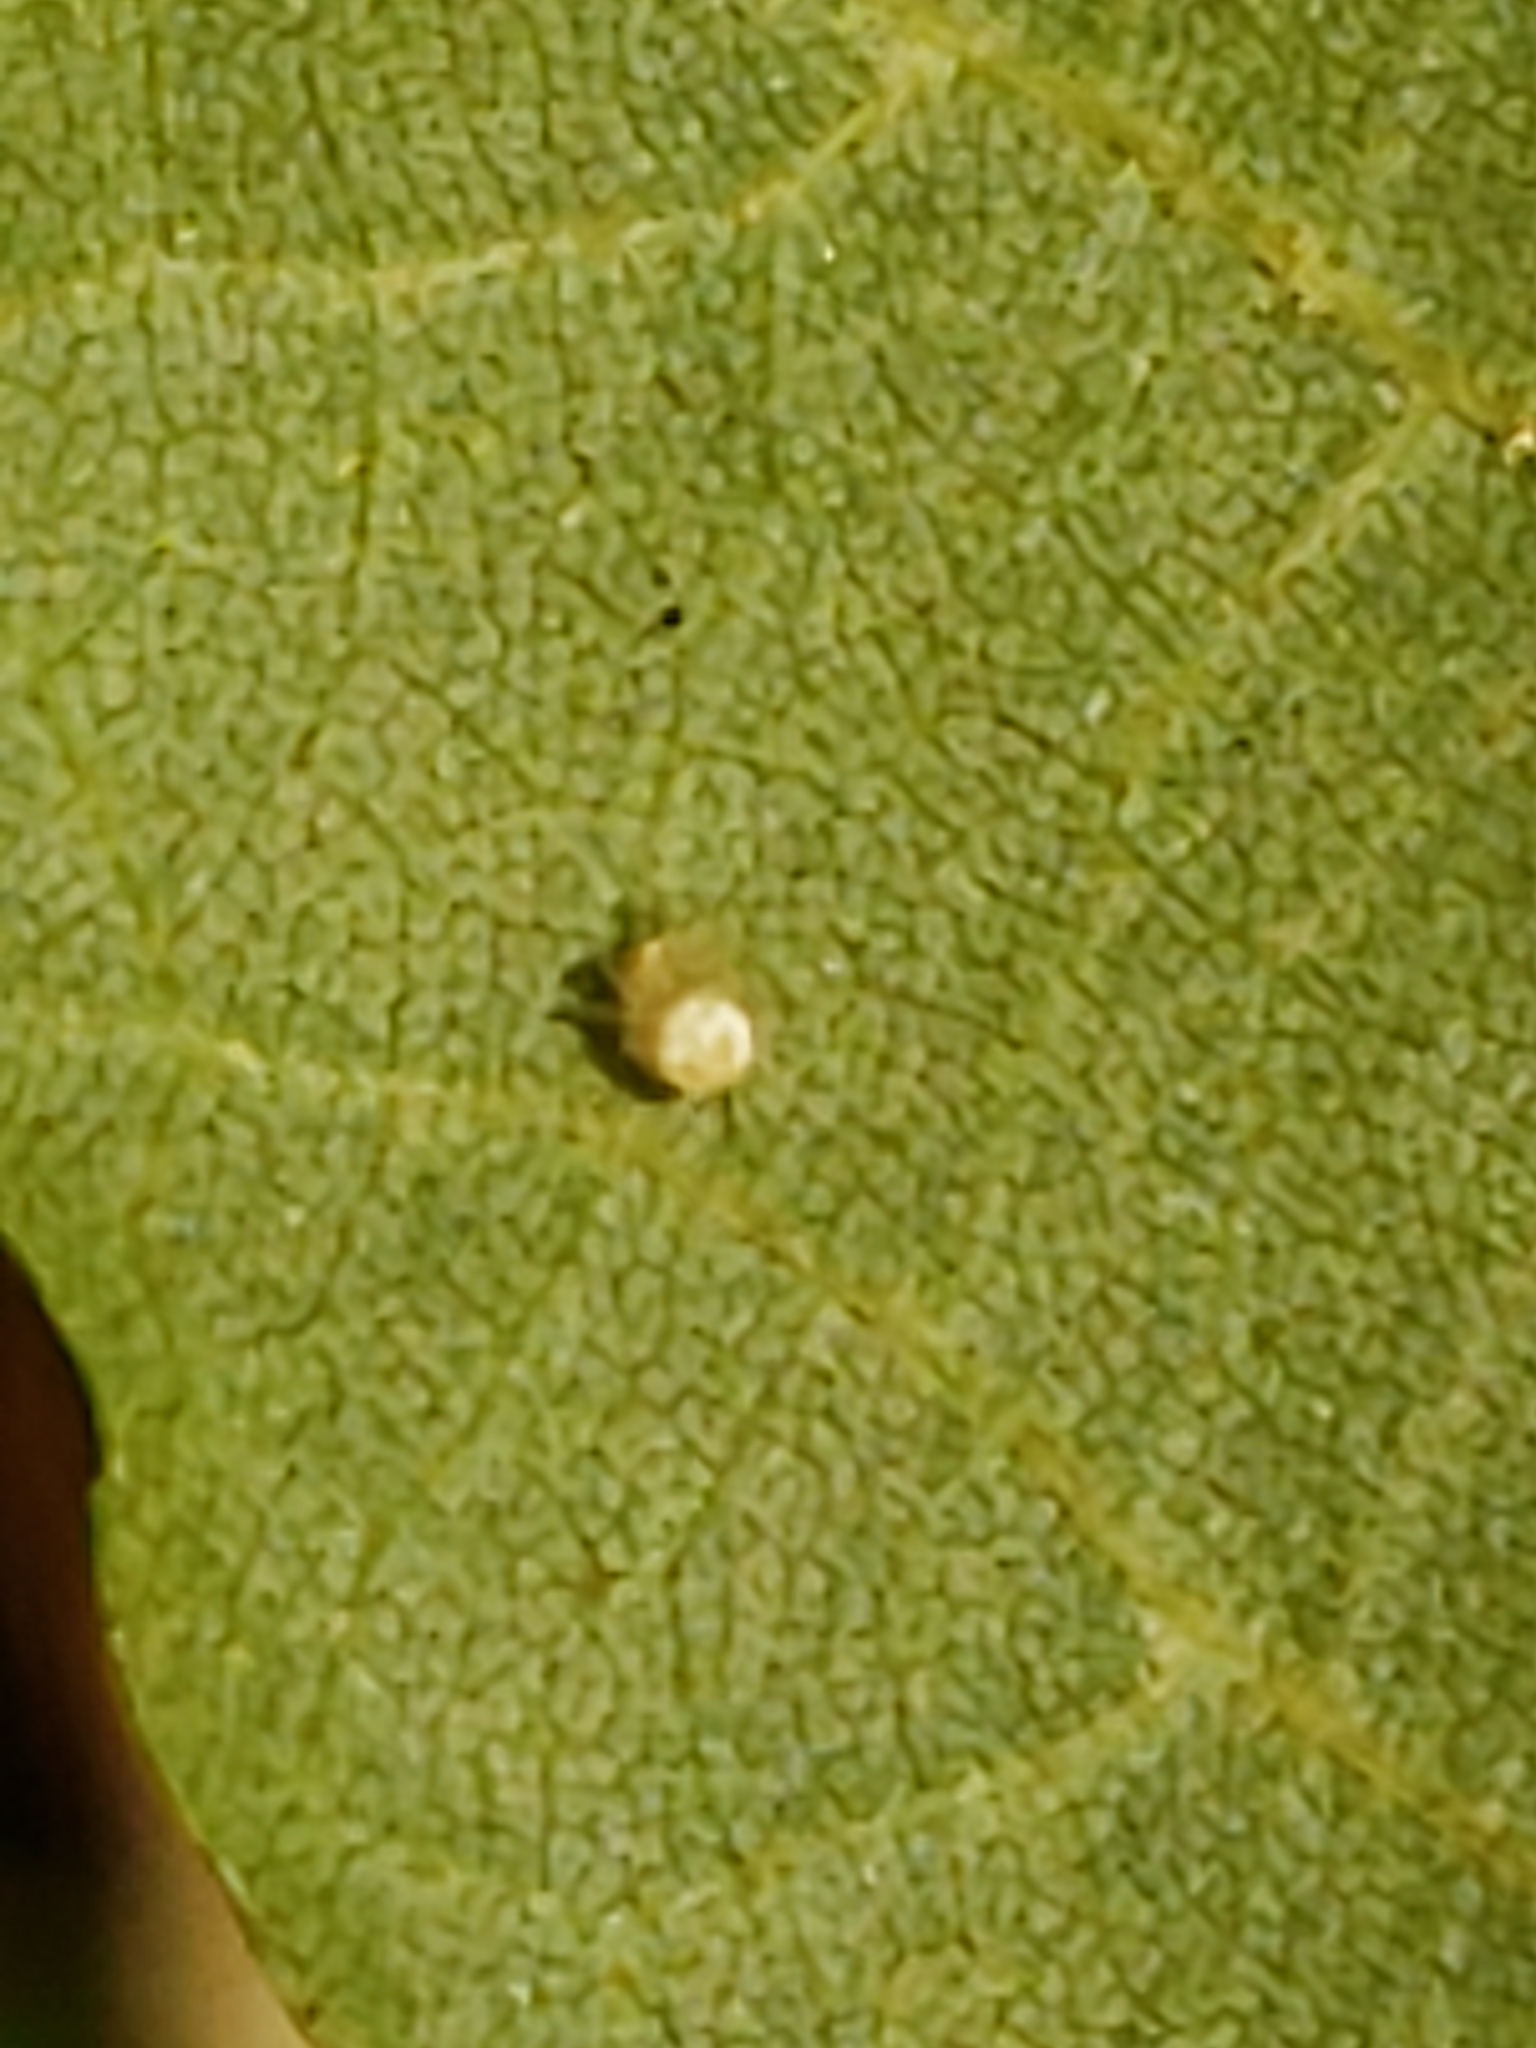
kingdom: Animalia
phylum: Arthropoda
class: Insecta
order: Diptera
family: Cecidomyiidae
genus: Caryomyia
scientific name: Caryomyia eumaris
